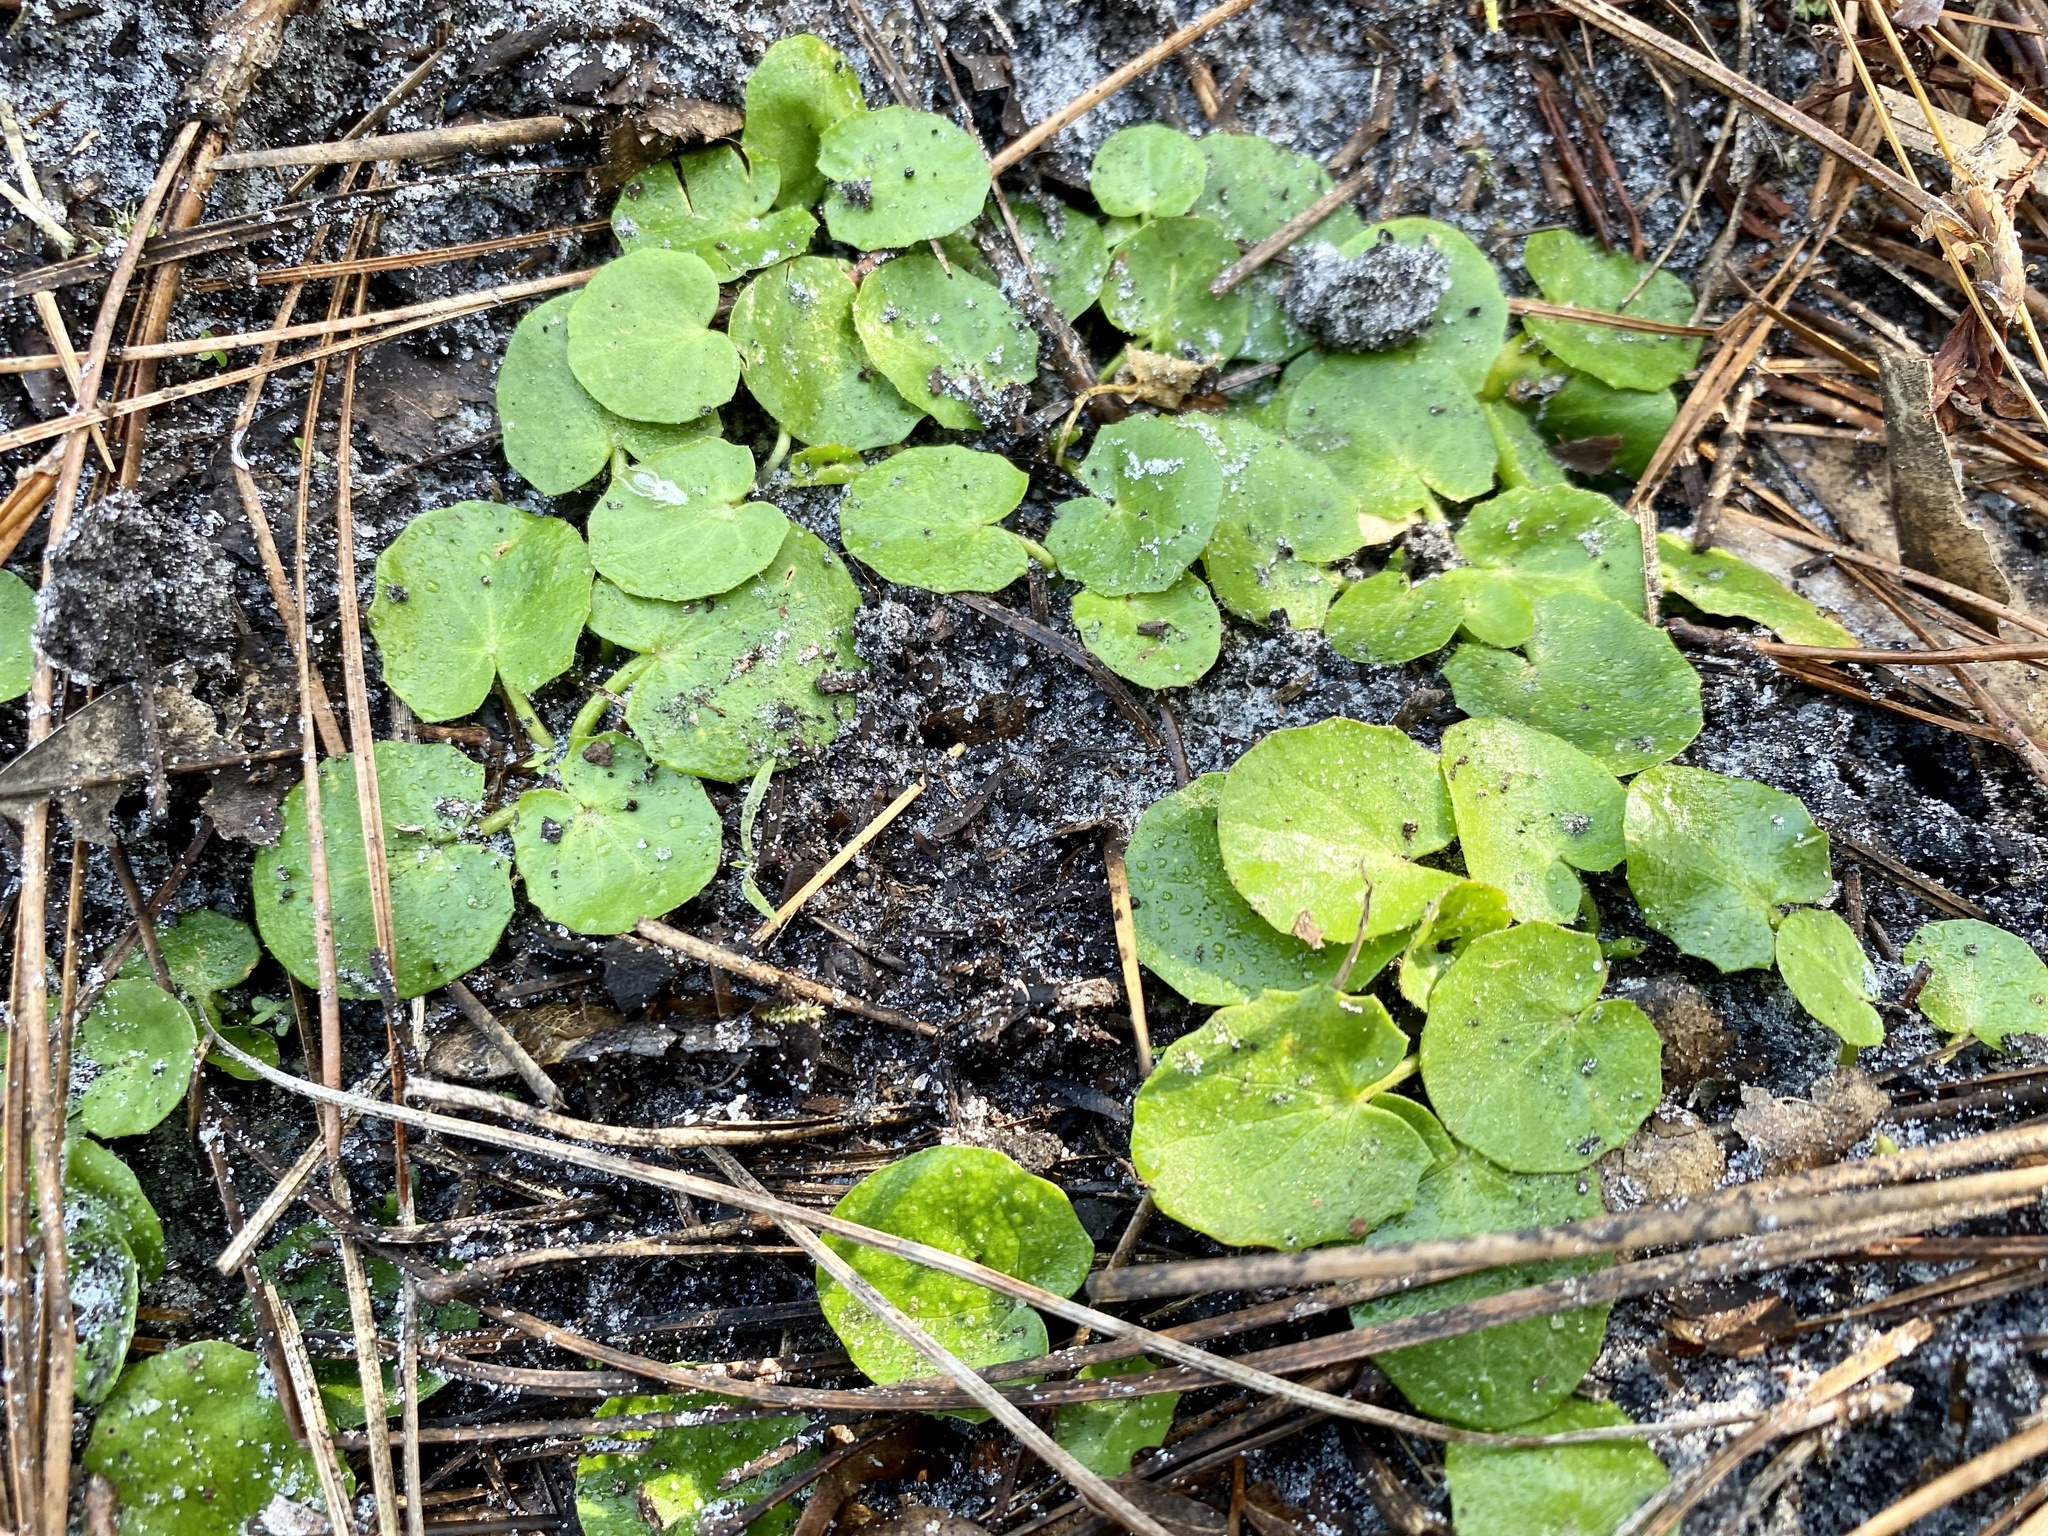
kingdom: Plantae
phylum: Tracheophyta
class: Magnoliopsida
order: Apiales
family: Apiaceae
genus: Centella
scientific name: Centella erecta
